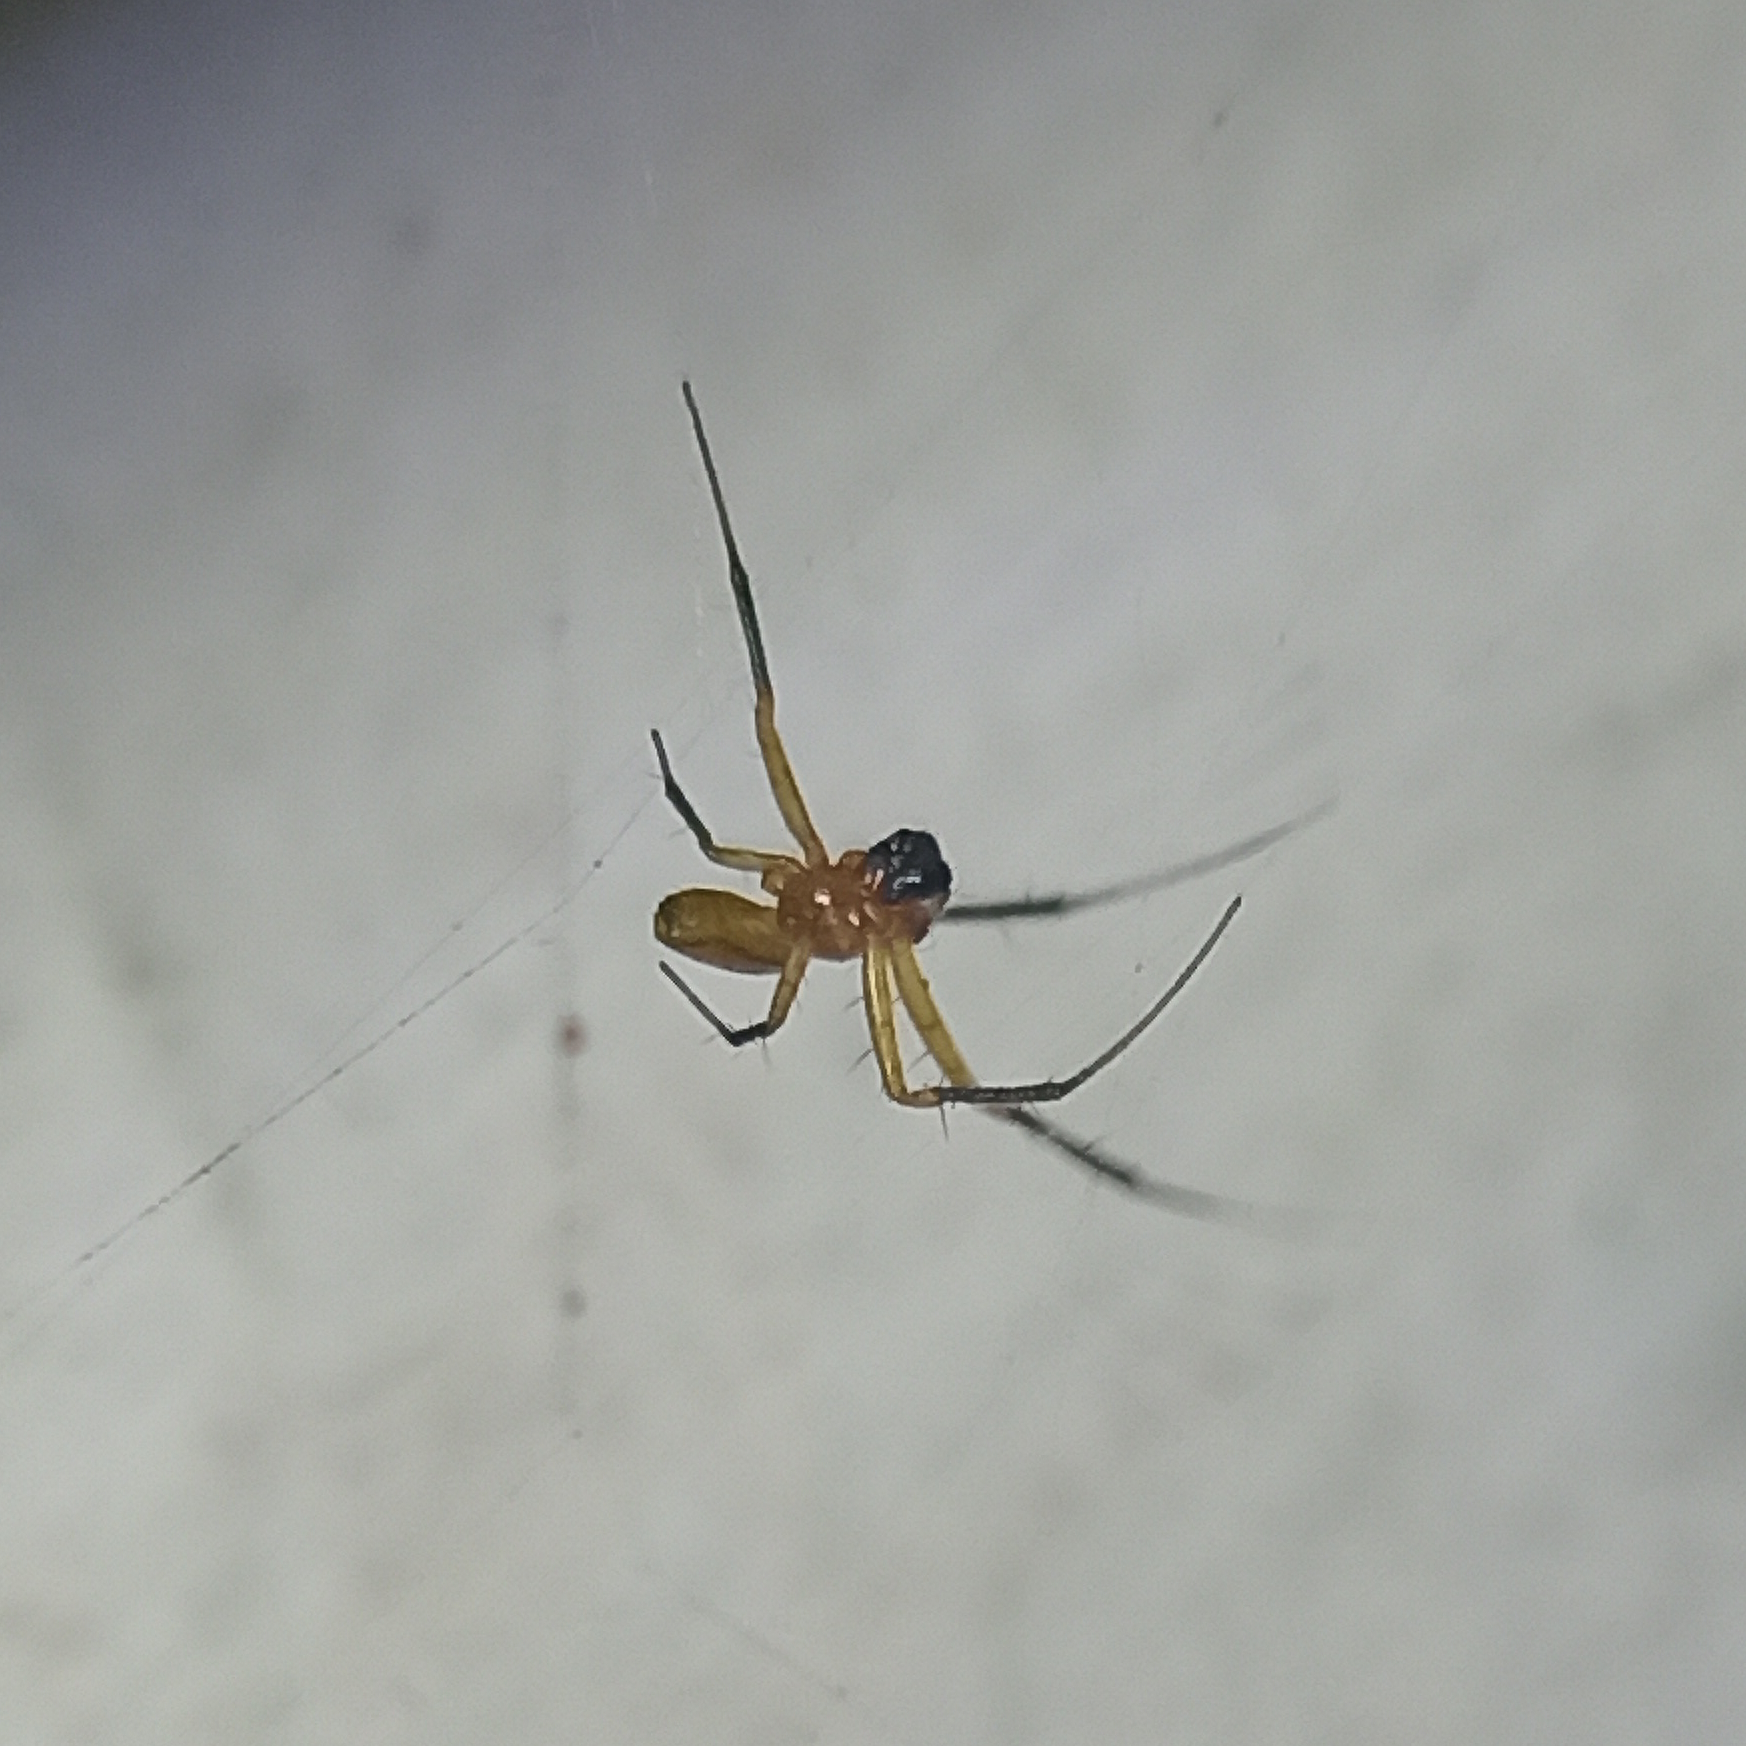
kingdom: Animalia
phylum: Arthropoda
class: Arachnida
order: Araneae
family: Araneidae
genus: Nephilingis
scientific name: Nephilingis cruentata
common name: African hermit spider
